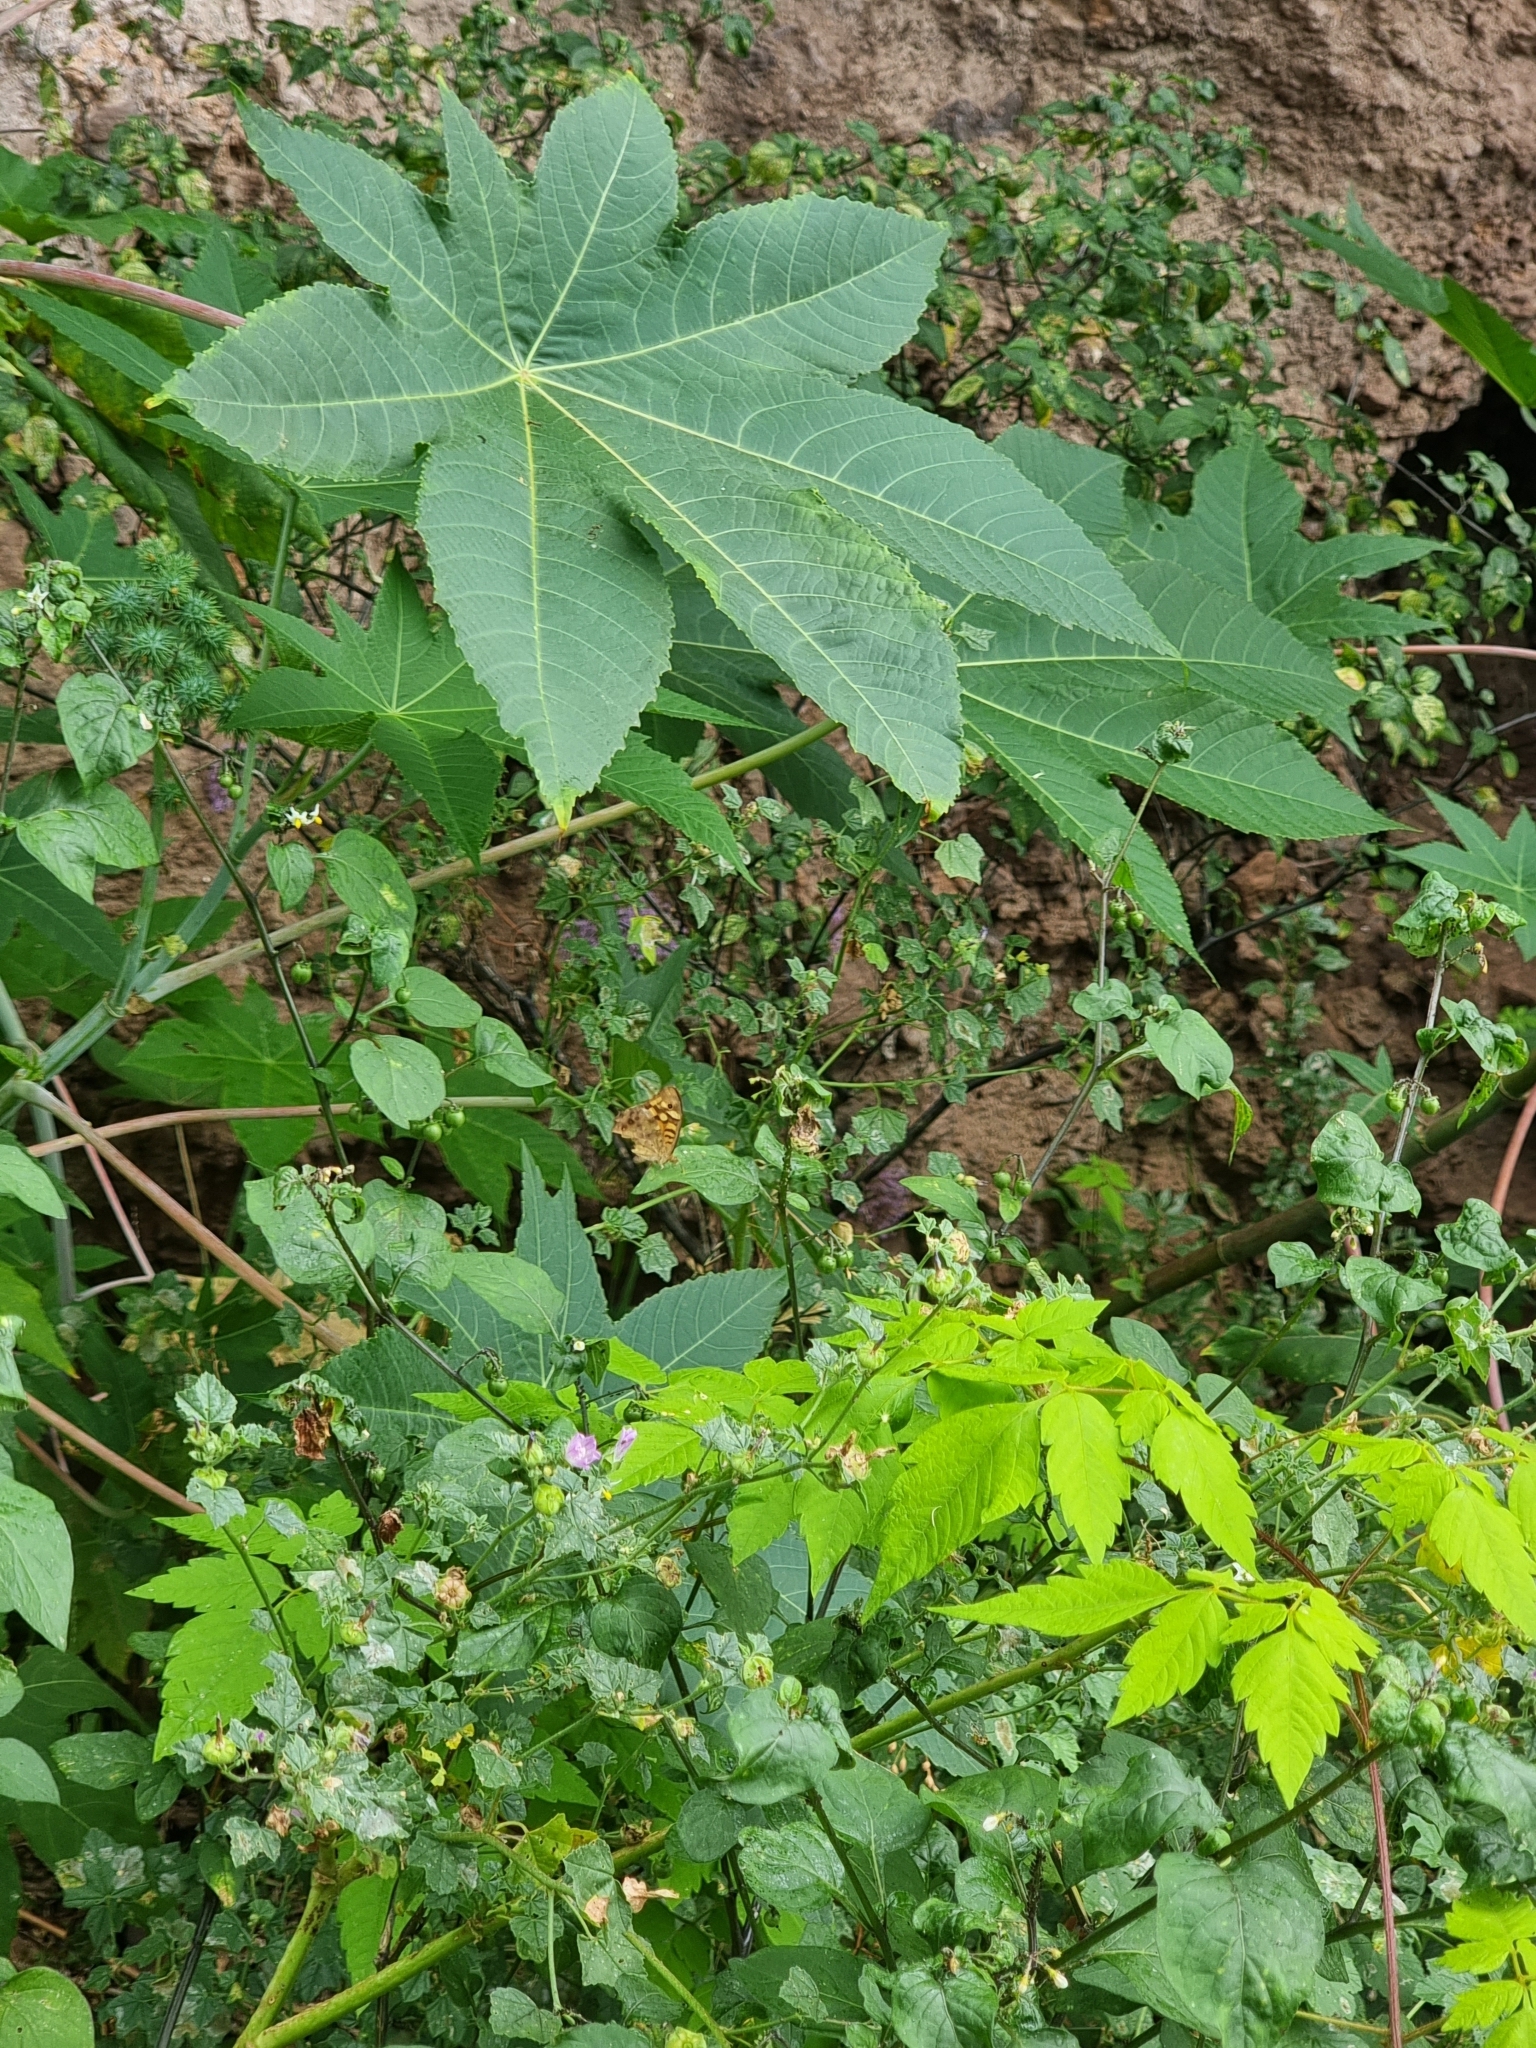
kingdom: Animalia
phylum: Arthropoda
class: Insecta
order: Lepidoptera
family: Nymphalidae
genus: Pararge
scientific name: Pararge aegeria
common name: Speckled wood
